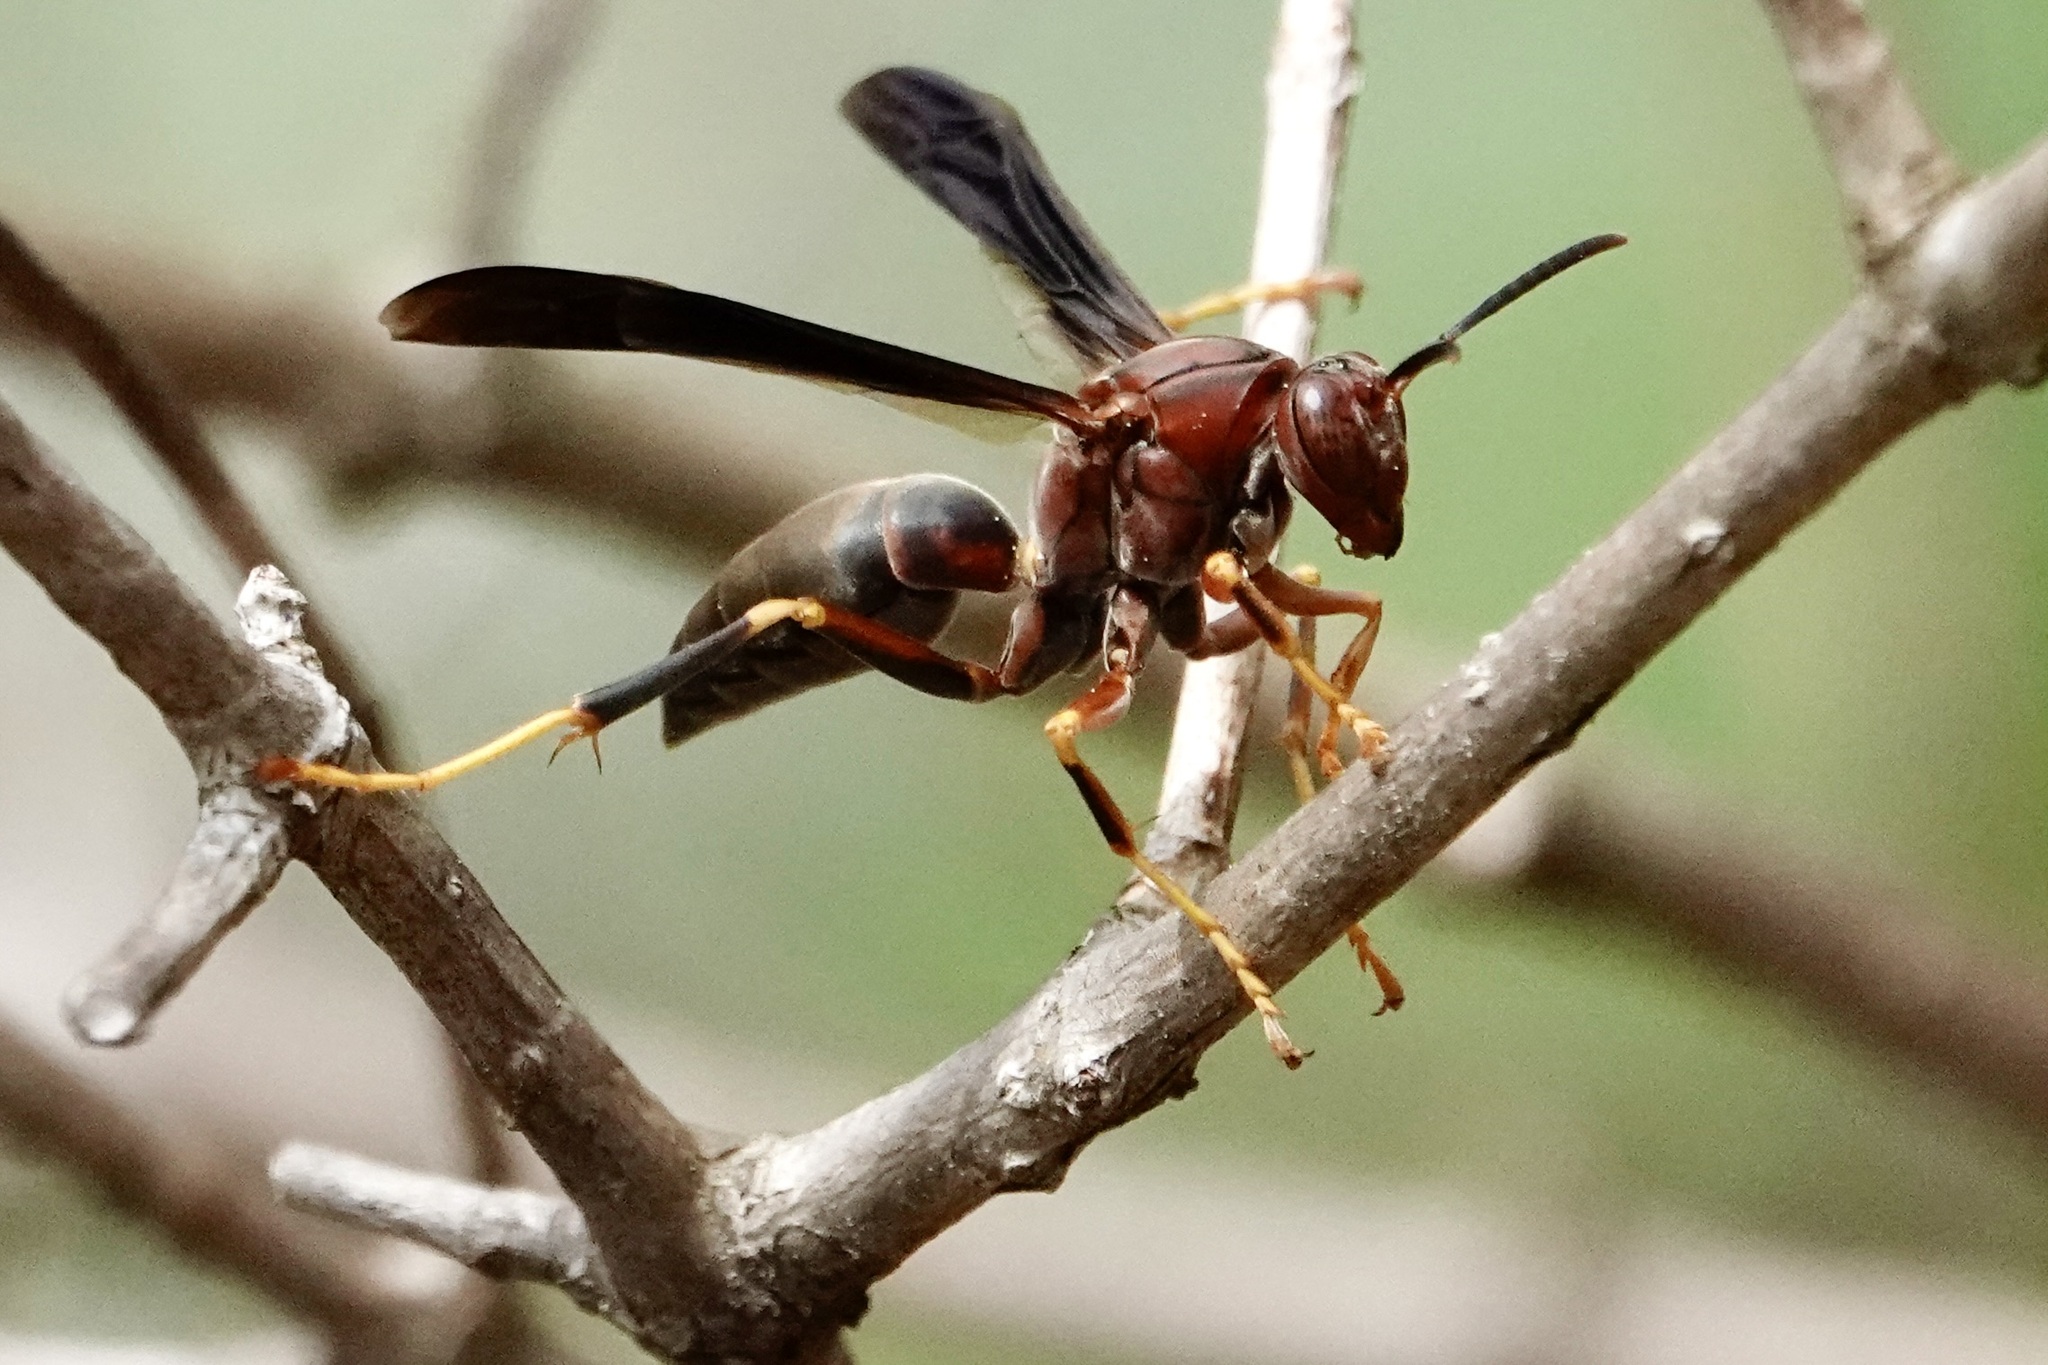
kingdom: Animalia
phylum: Arthropoda
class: Insecta
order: Hymenoptera
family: Eumenidae
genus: Polistes
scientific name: Polistes metricus
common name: Metric paper wasp
